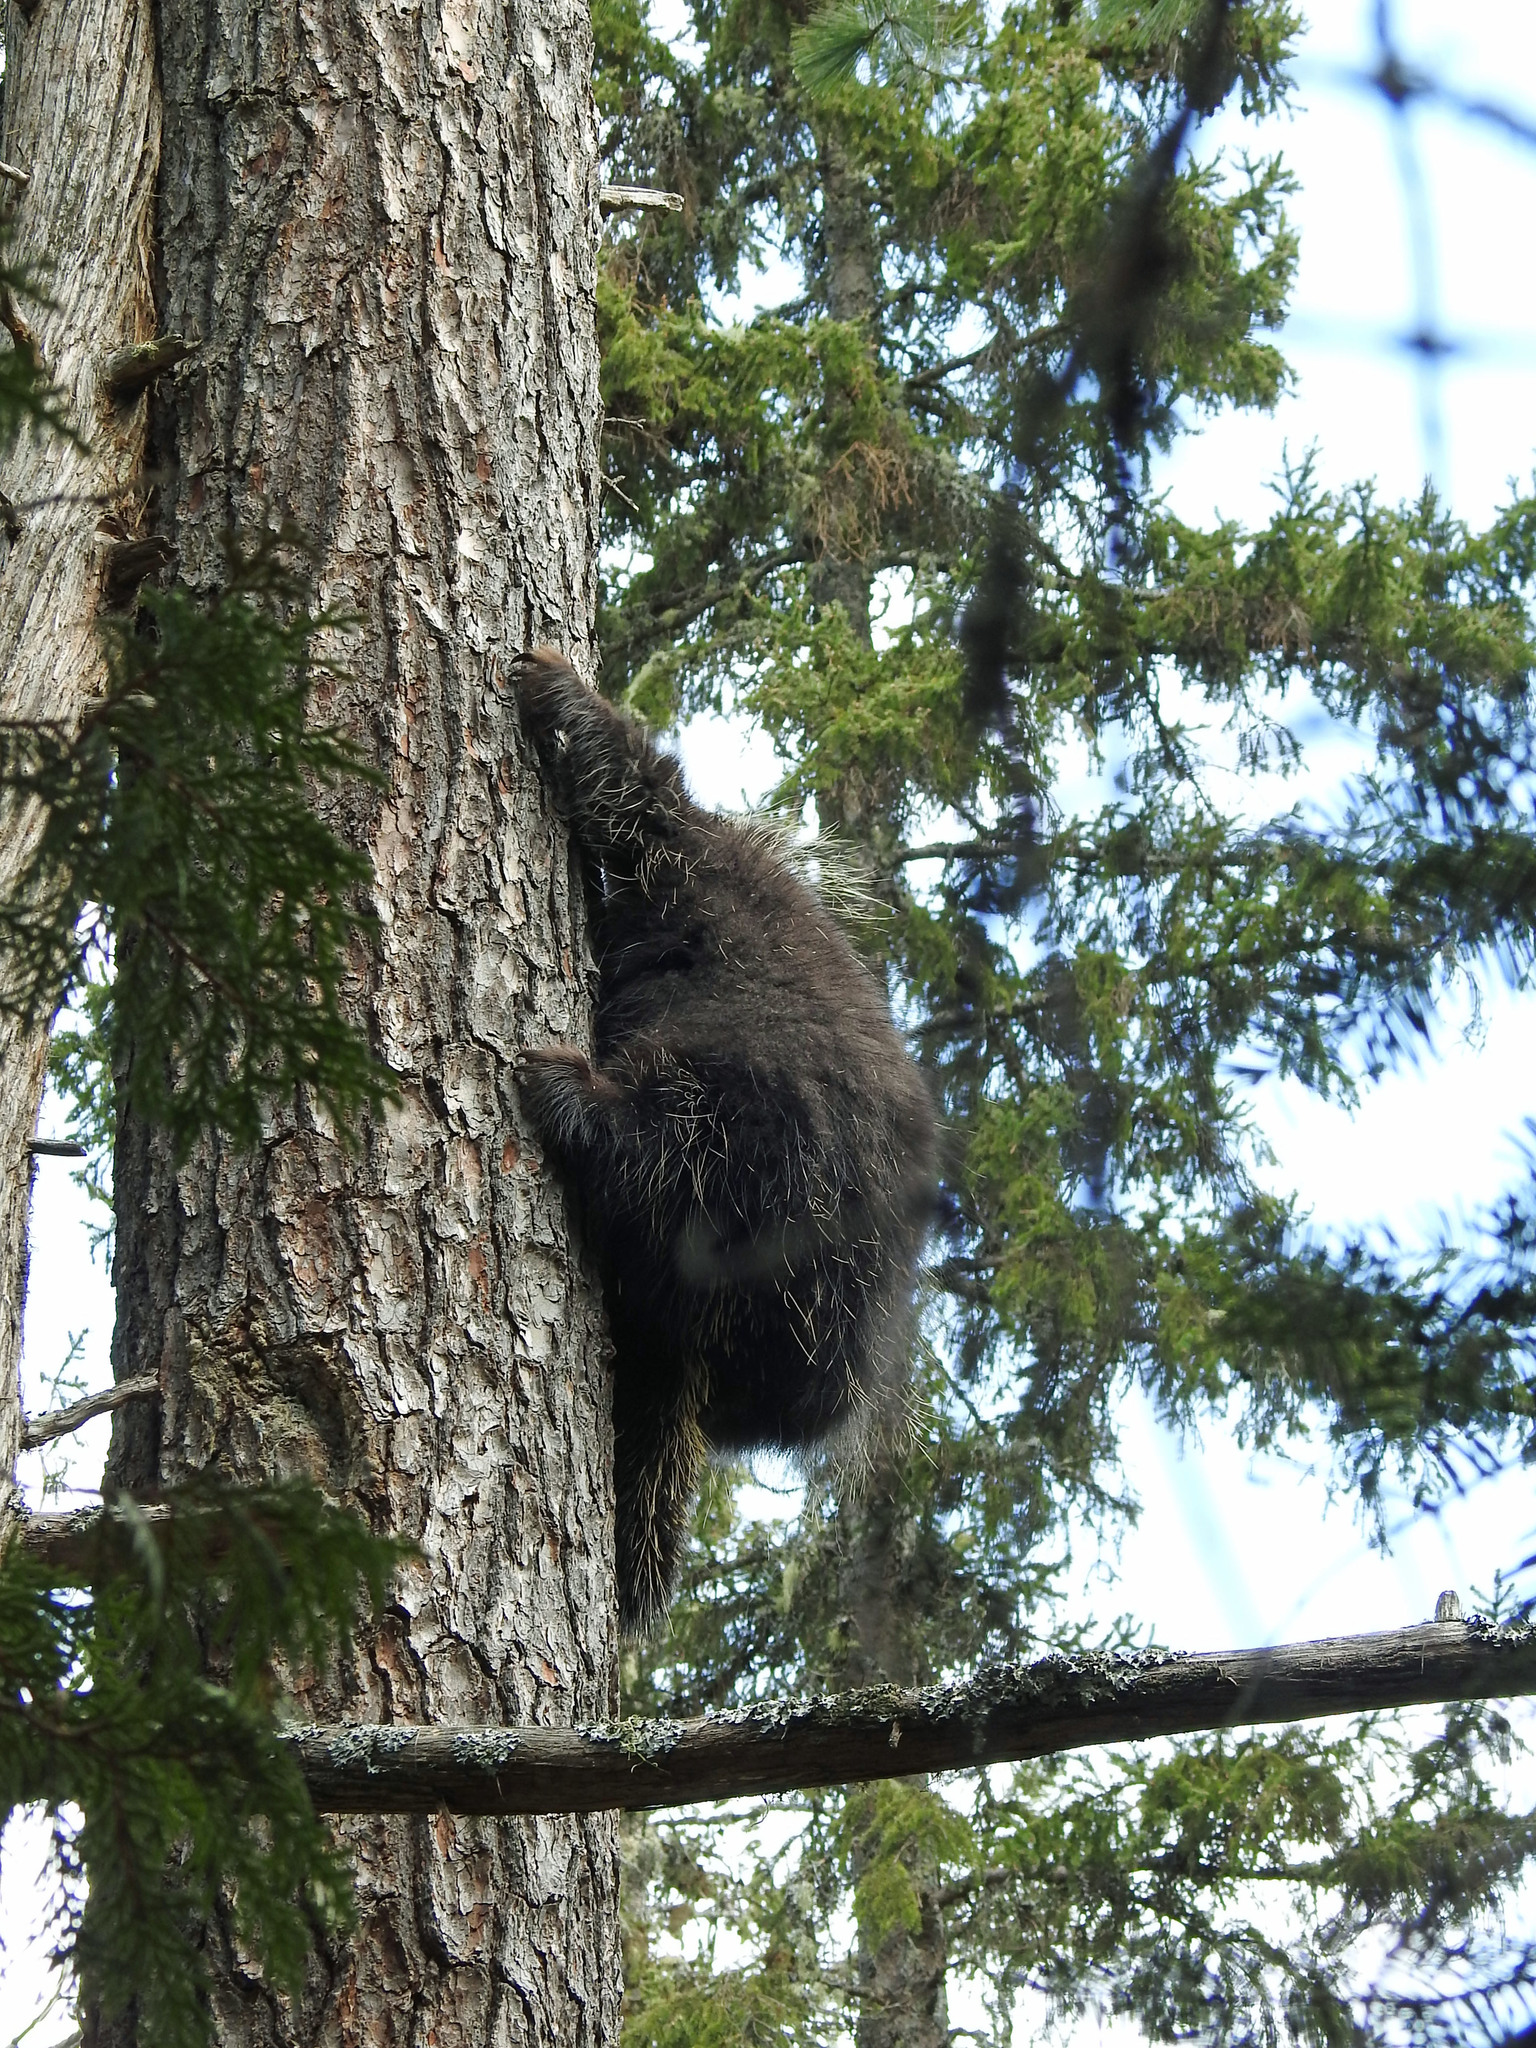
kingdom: Animalia
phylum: Chordata
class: Mammalia
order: Rodentia
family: Erethizontidae
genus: Erethizon
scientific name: Erethizon dorsatus
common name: North american porcupine
